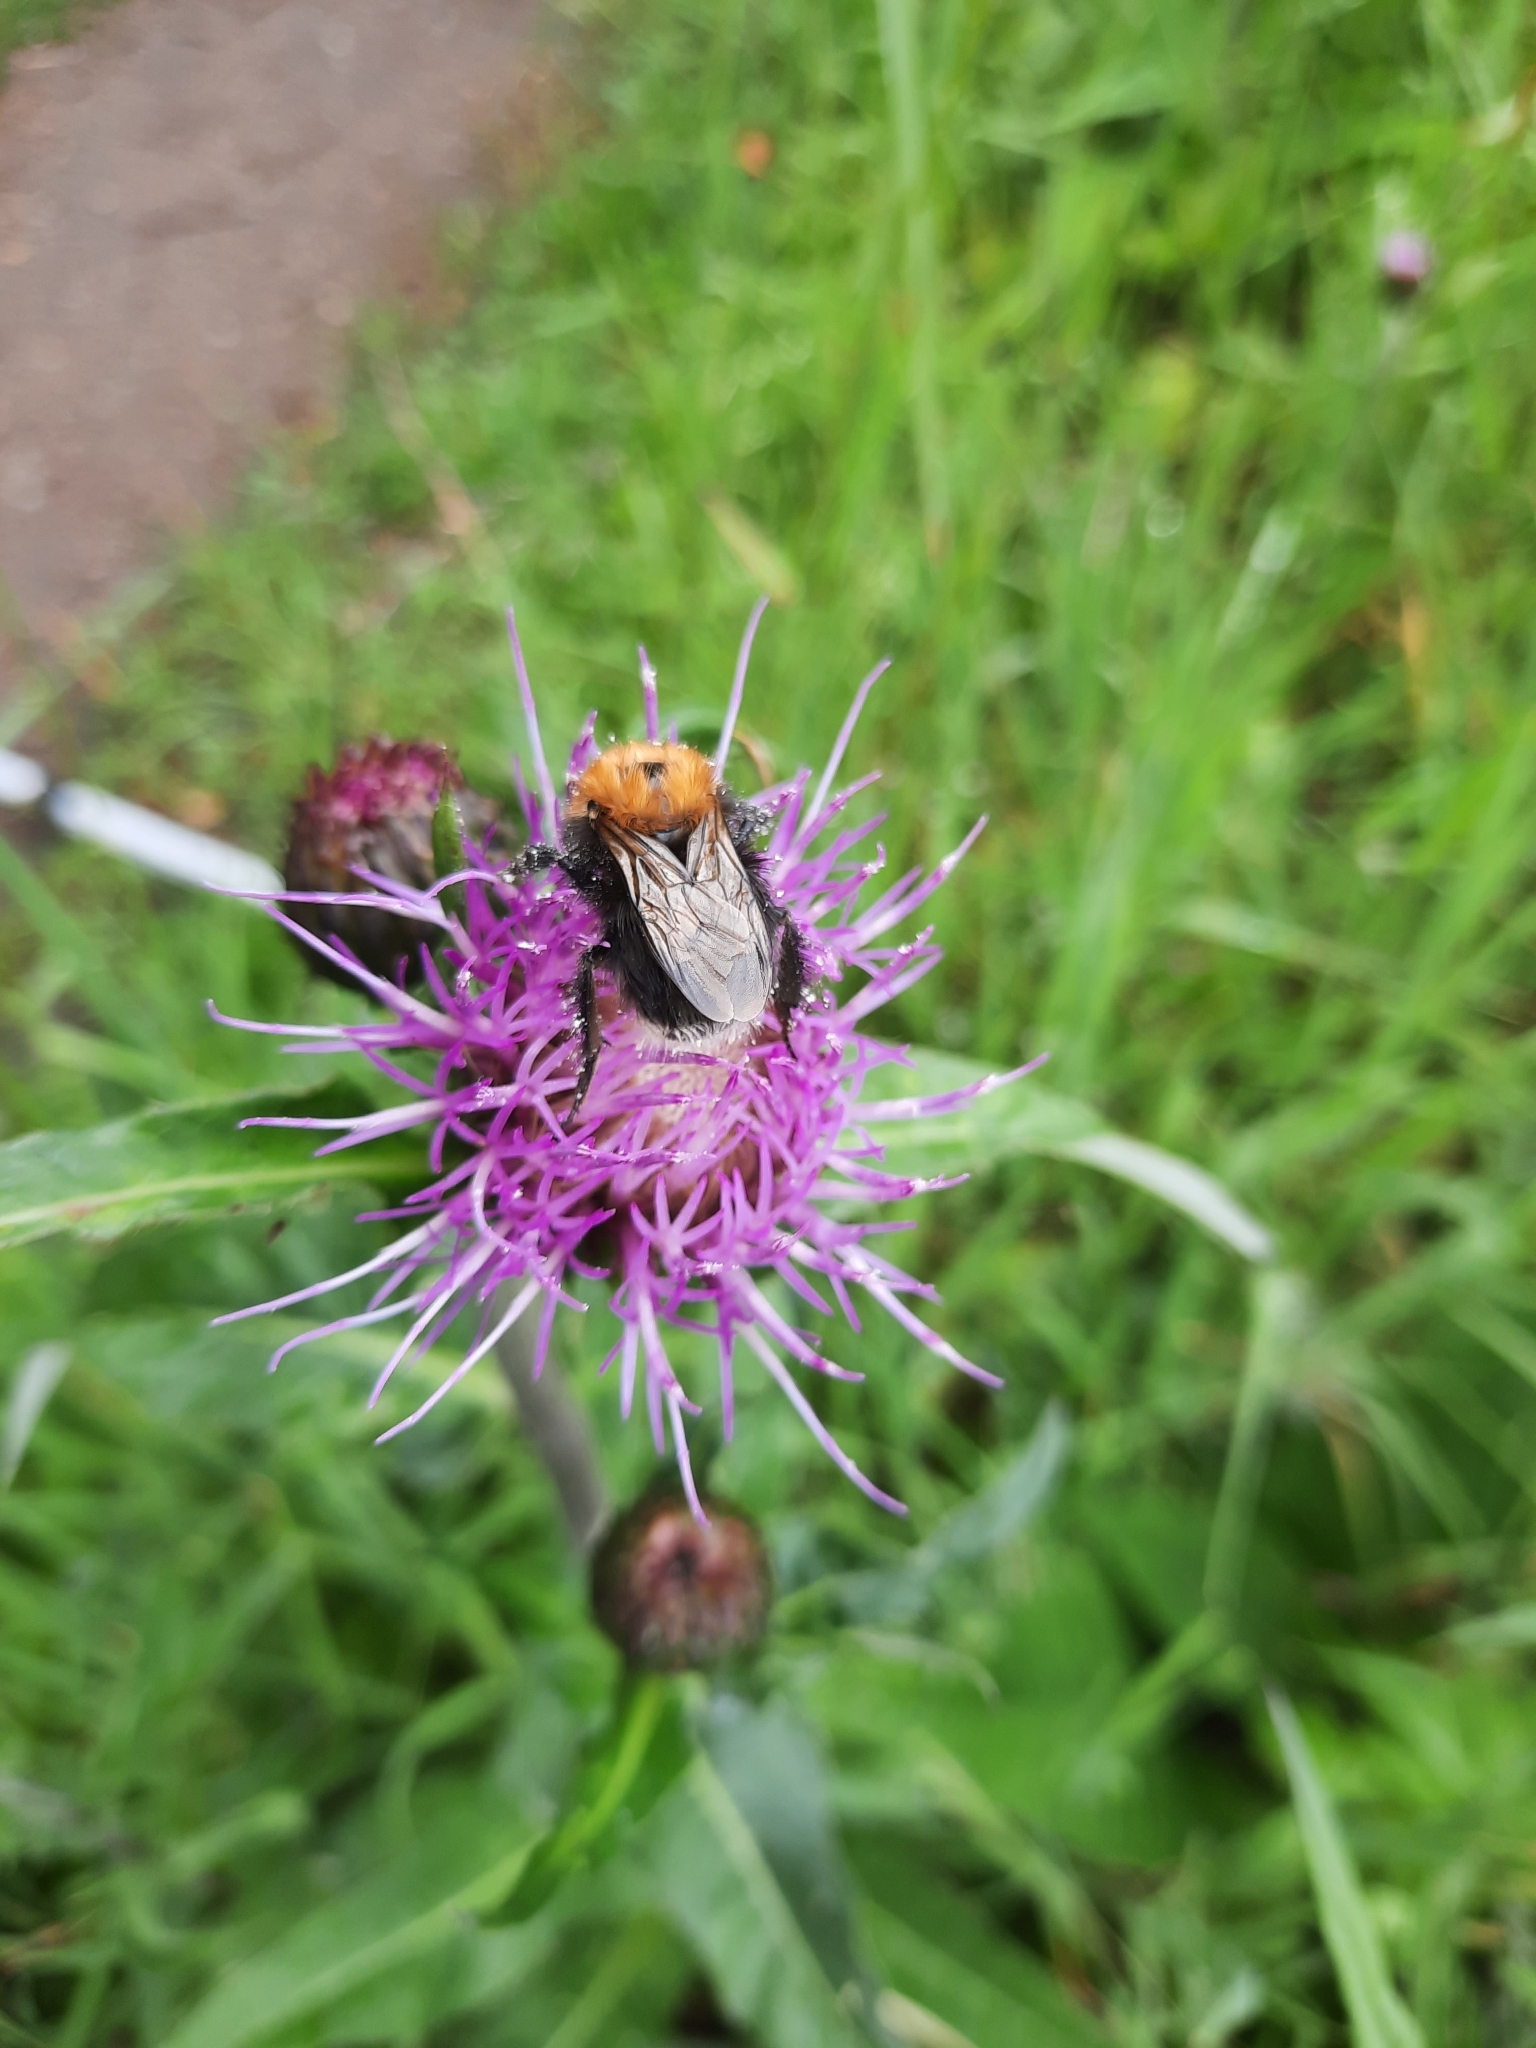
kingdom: Animalia
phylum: Arthropoda
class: Insecta
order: Hymenoptera
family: Apidae
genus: Bombus
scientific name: Bombus hypnorum
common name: New garden bumblebee
